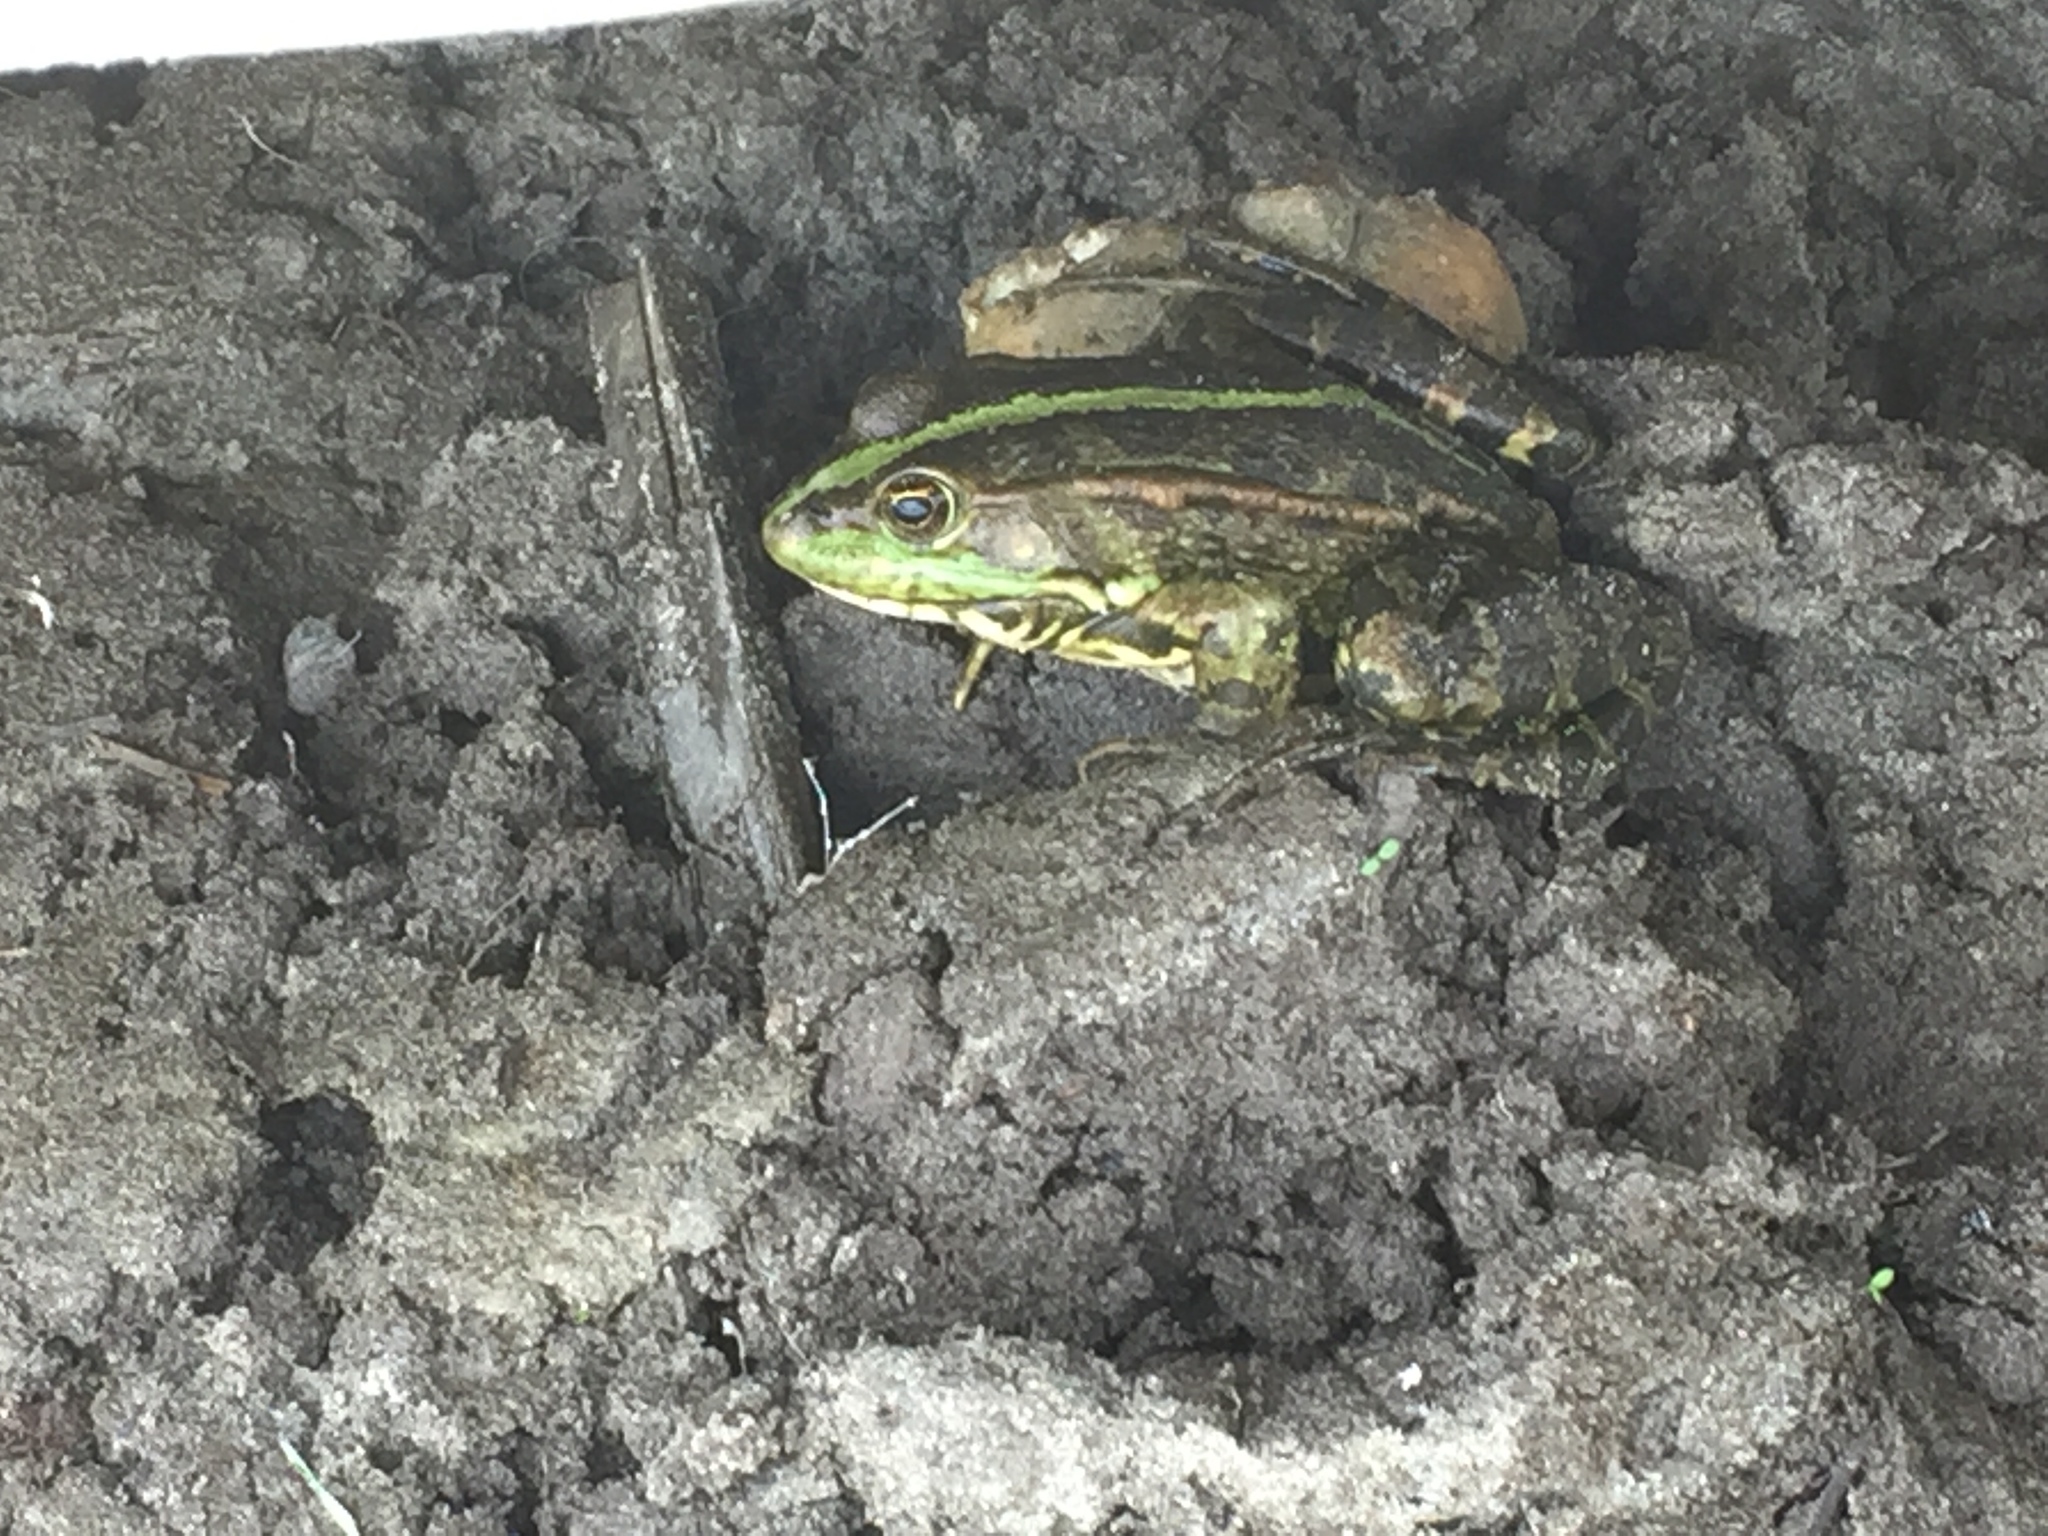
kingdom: Animalia
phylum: Chordata
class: Amphibia
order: Anura
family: Ranidae
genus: Pelophylax
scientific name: Pelophylax ridibundus
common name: Marsh frog
